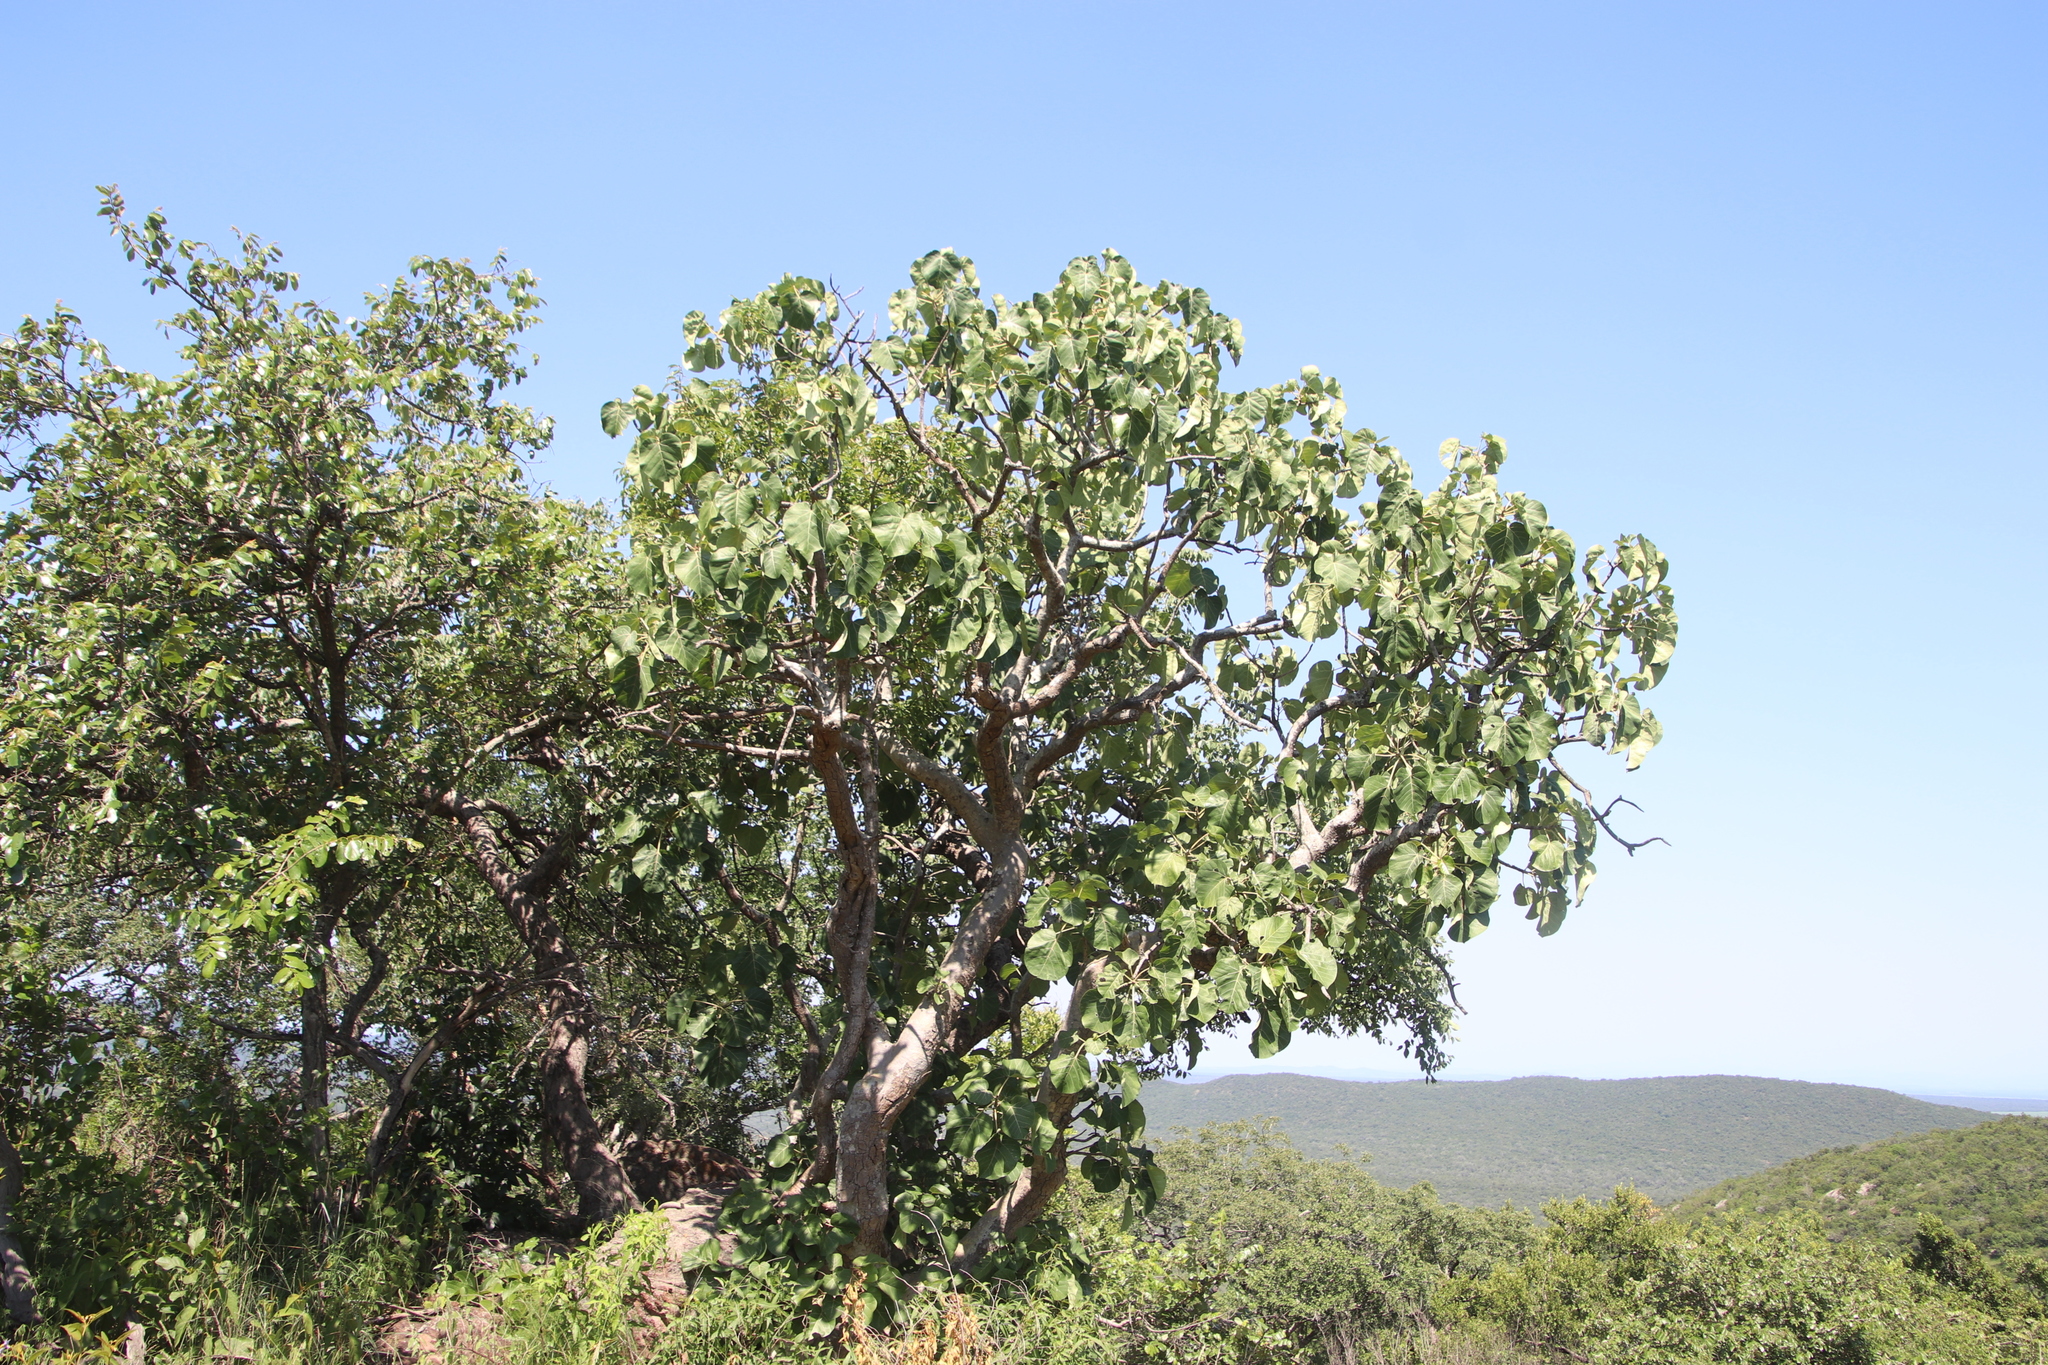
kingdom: Plantae
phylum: Tracheophyta
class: Magnoliopsida
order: Rosales
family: Moraceae
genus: Ficus
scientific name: Ficus abutilifolia
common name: Large-leaved rock fig
